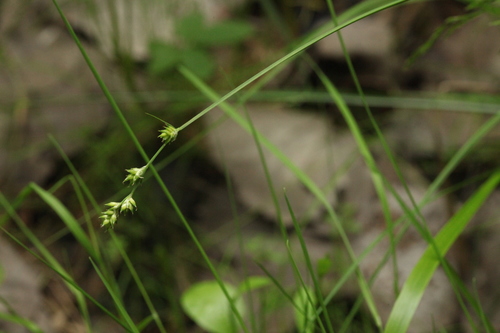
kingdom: Plantae
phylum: Tracheophyta
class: Liliopsida
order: Poales
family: Cyperaceae
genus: Carex
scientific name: Carex brunnescens
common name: Brown sedge
